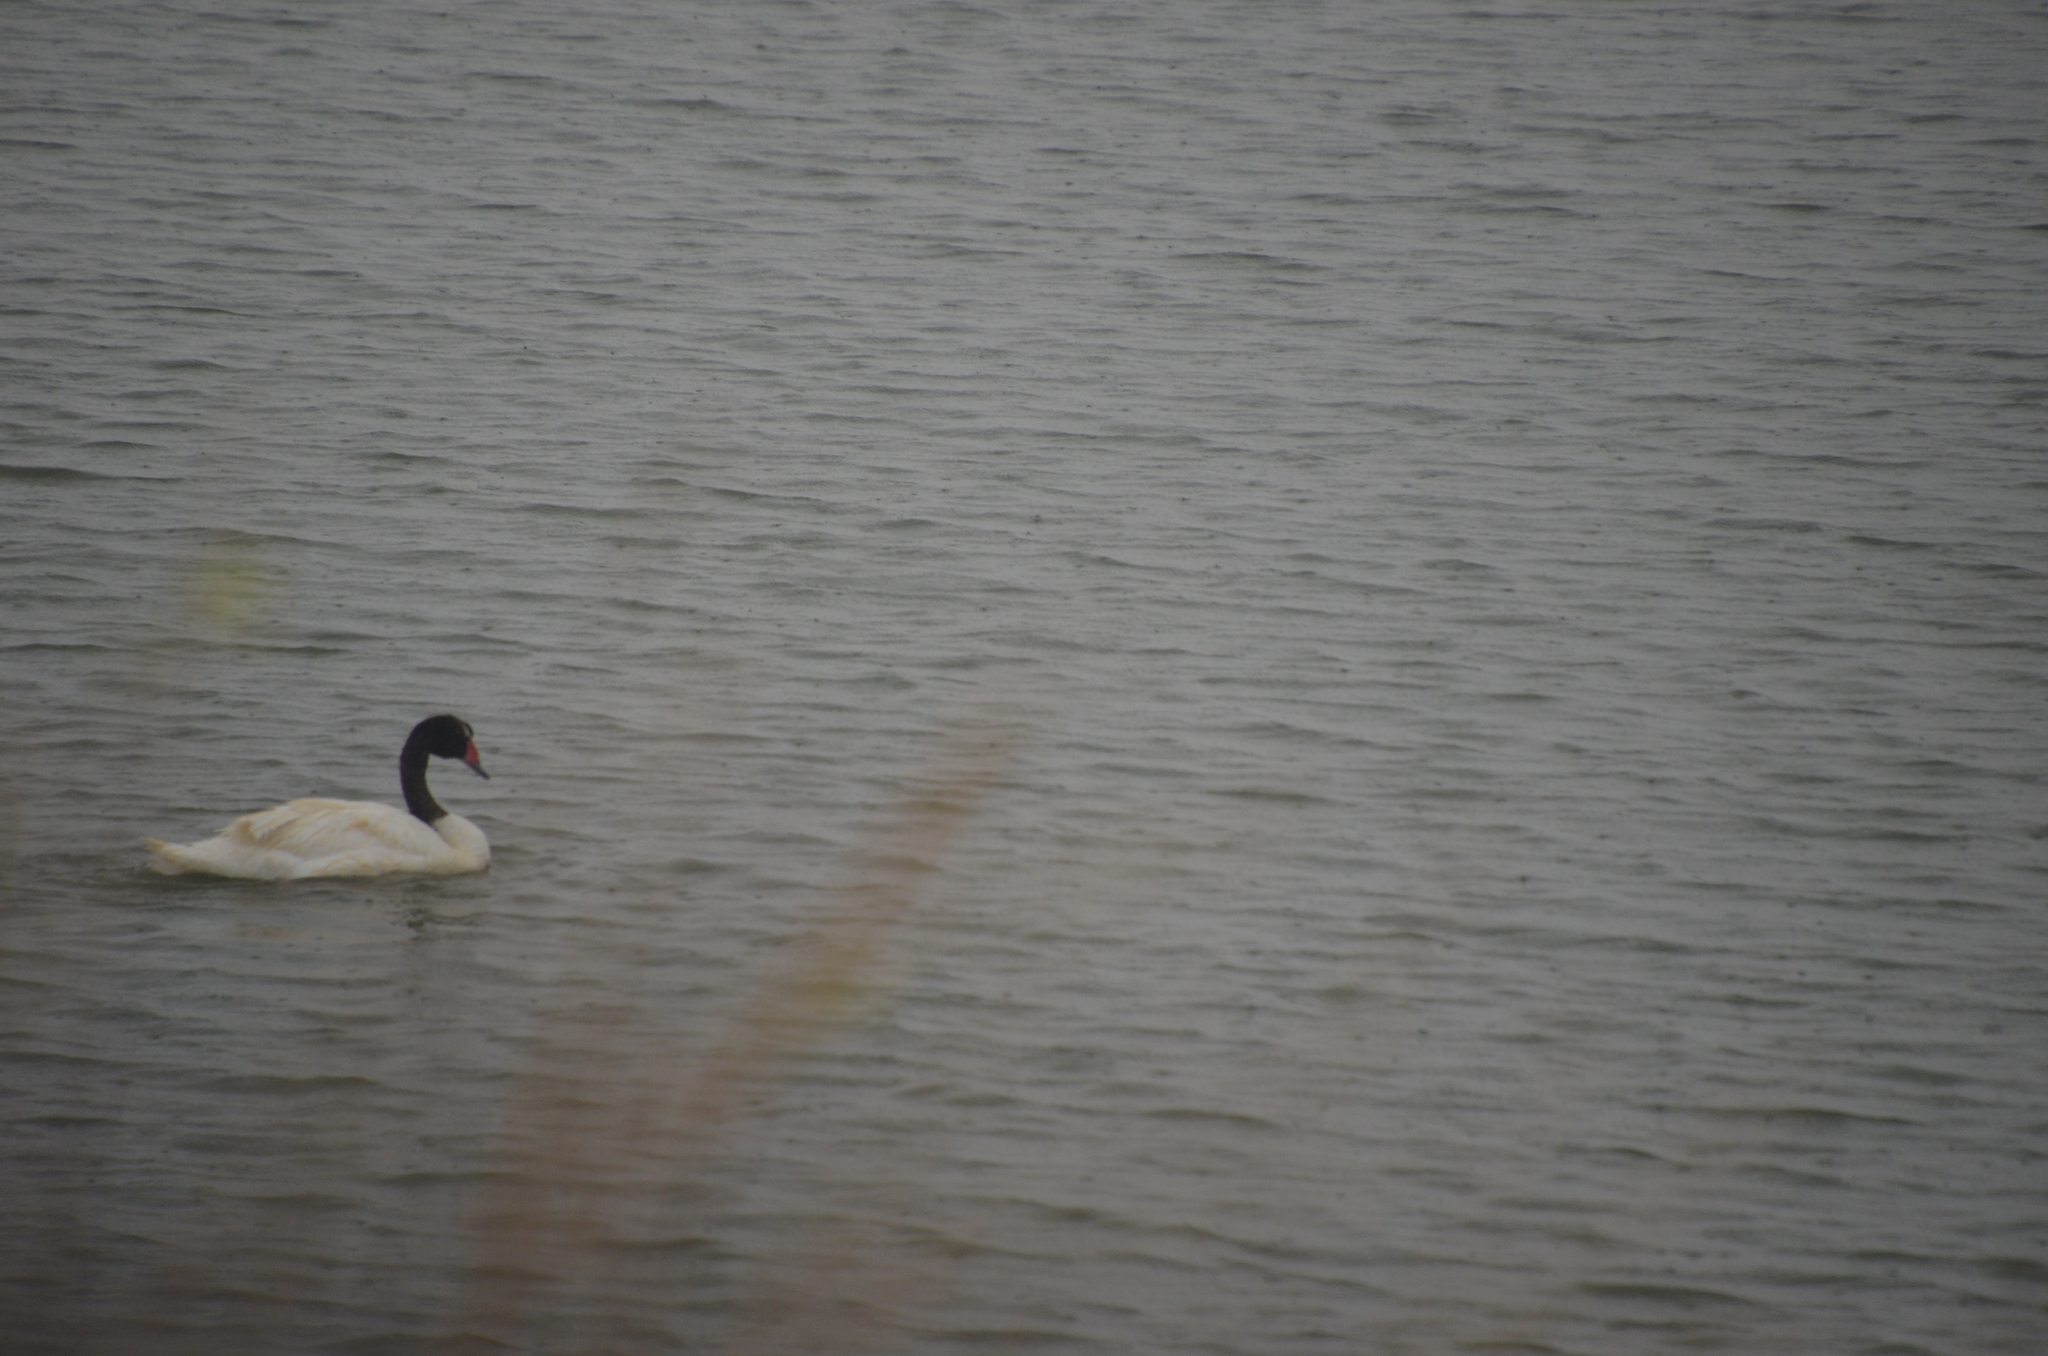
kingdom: Animalia
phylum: Chordata
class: Aves
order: Anseriformes
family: Anatidae
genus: Cygnus
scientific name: Cygnus melancoryphus
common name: Black-necked swan
